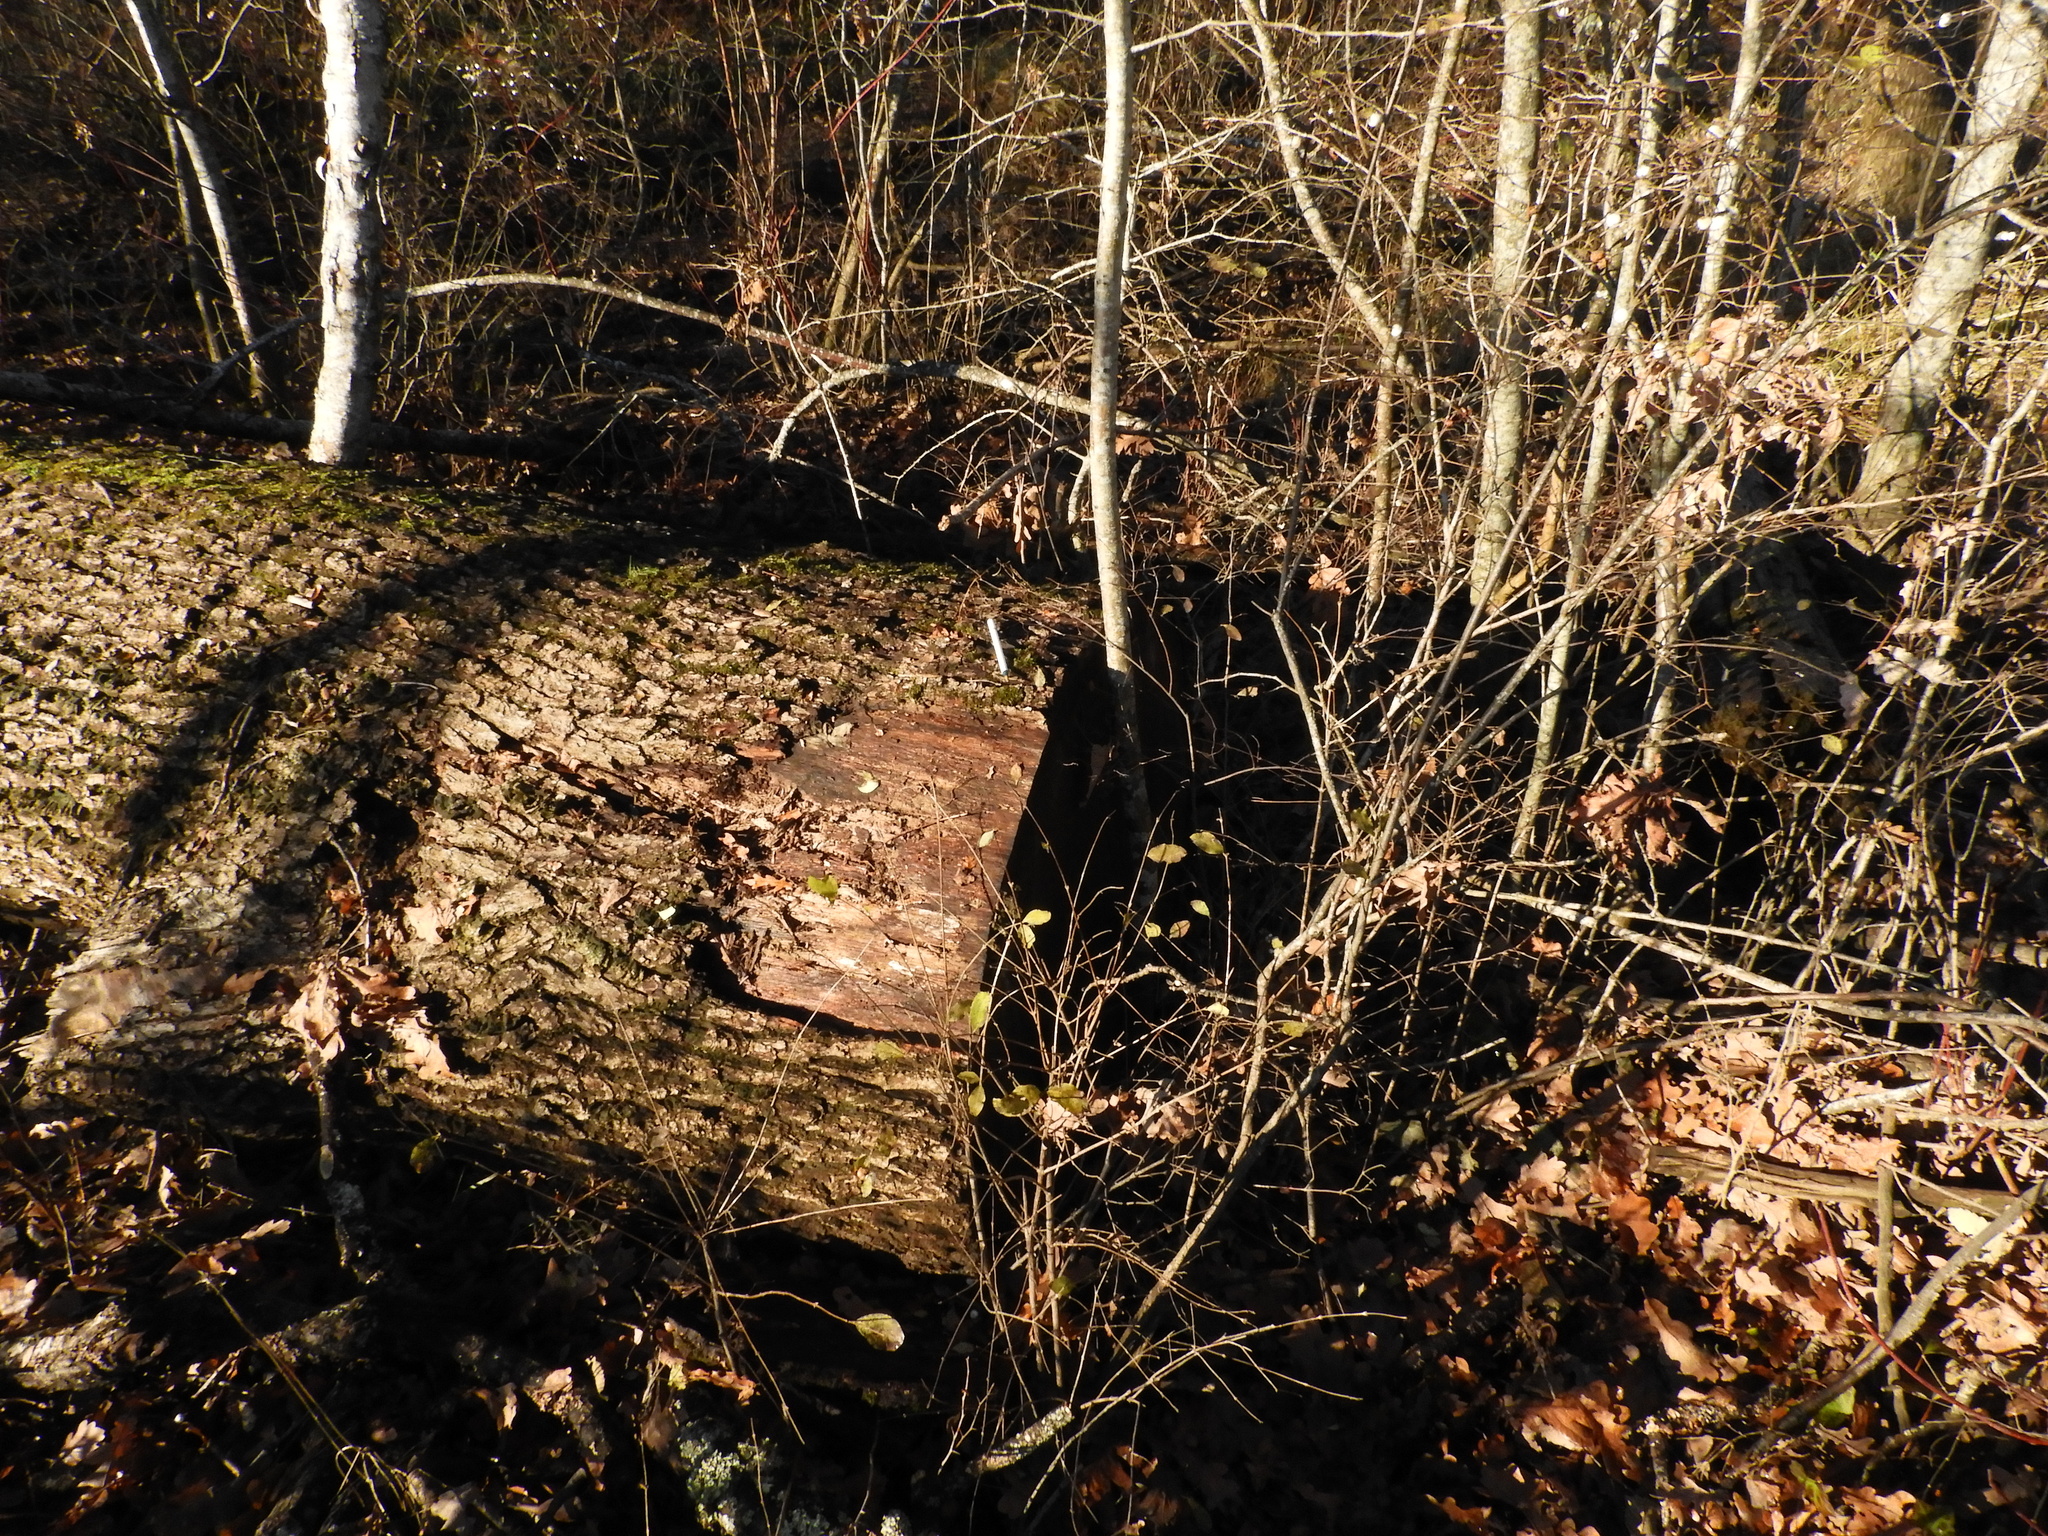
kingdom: Plantae
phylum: Tracheophyta
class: Magnoliopsida
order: Fagales
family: Fagaceae
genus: Quercus
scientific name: Quercus robur
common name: Pedunculate oak
